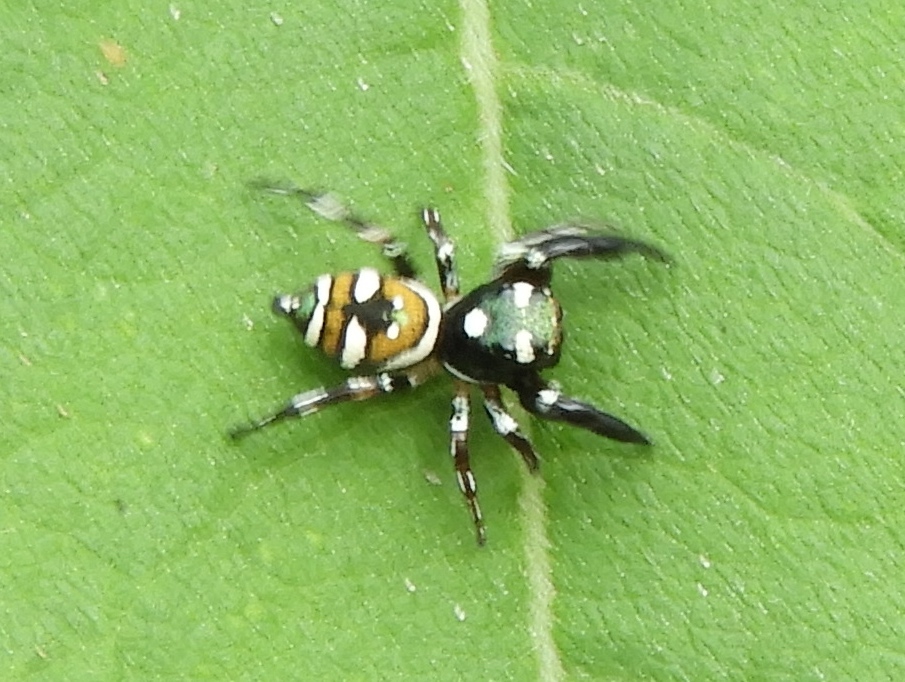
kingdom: Animalia
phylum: Arthropoda
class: Arachnida
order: Araneae
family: Salticidae
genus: Sassacus
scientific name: Sassacus
